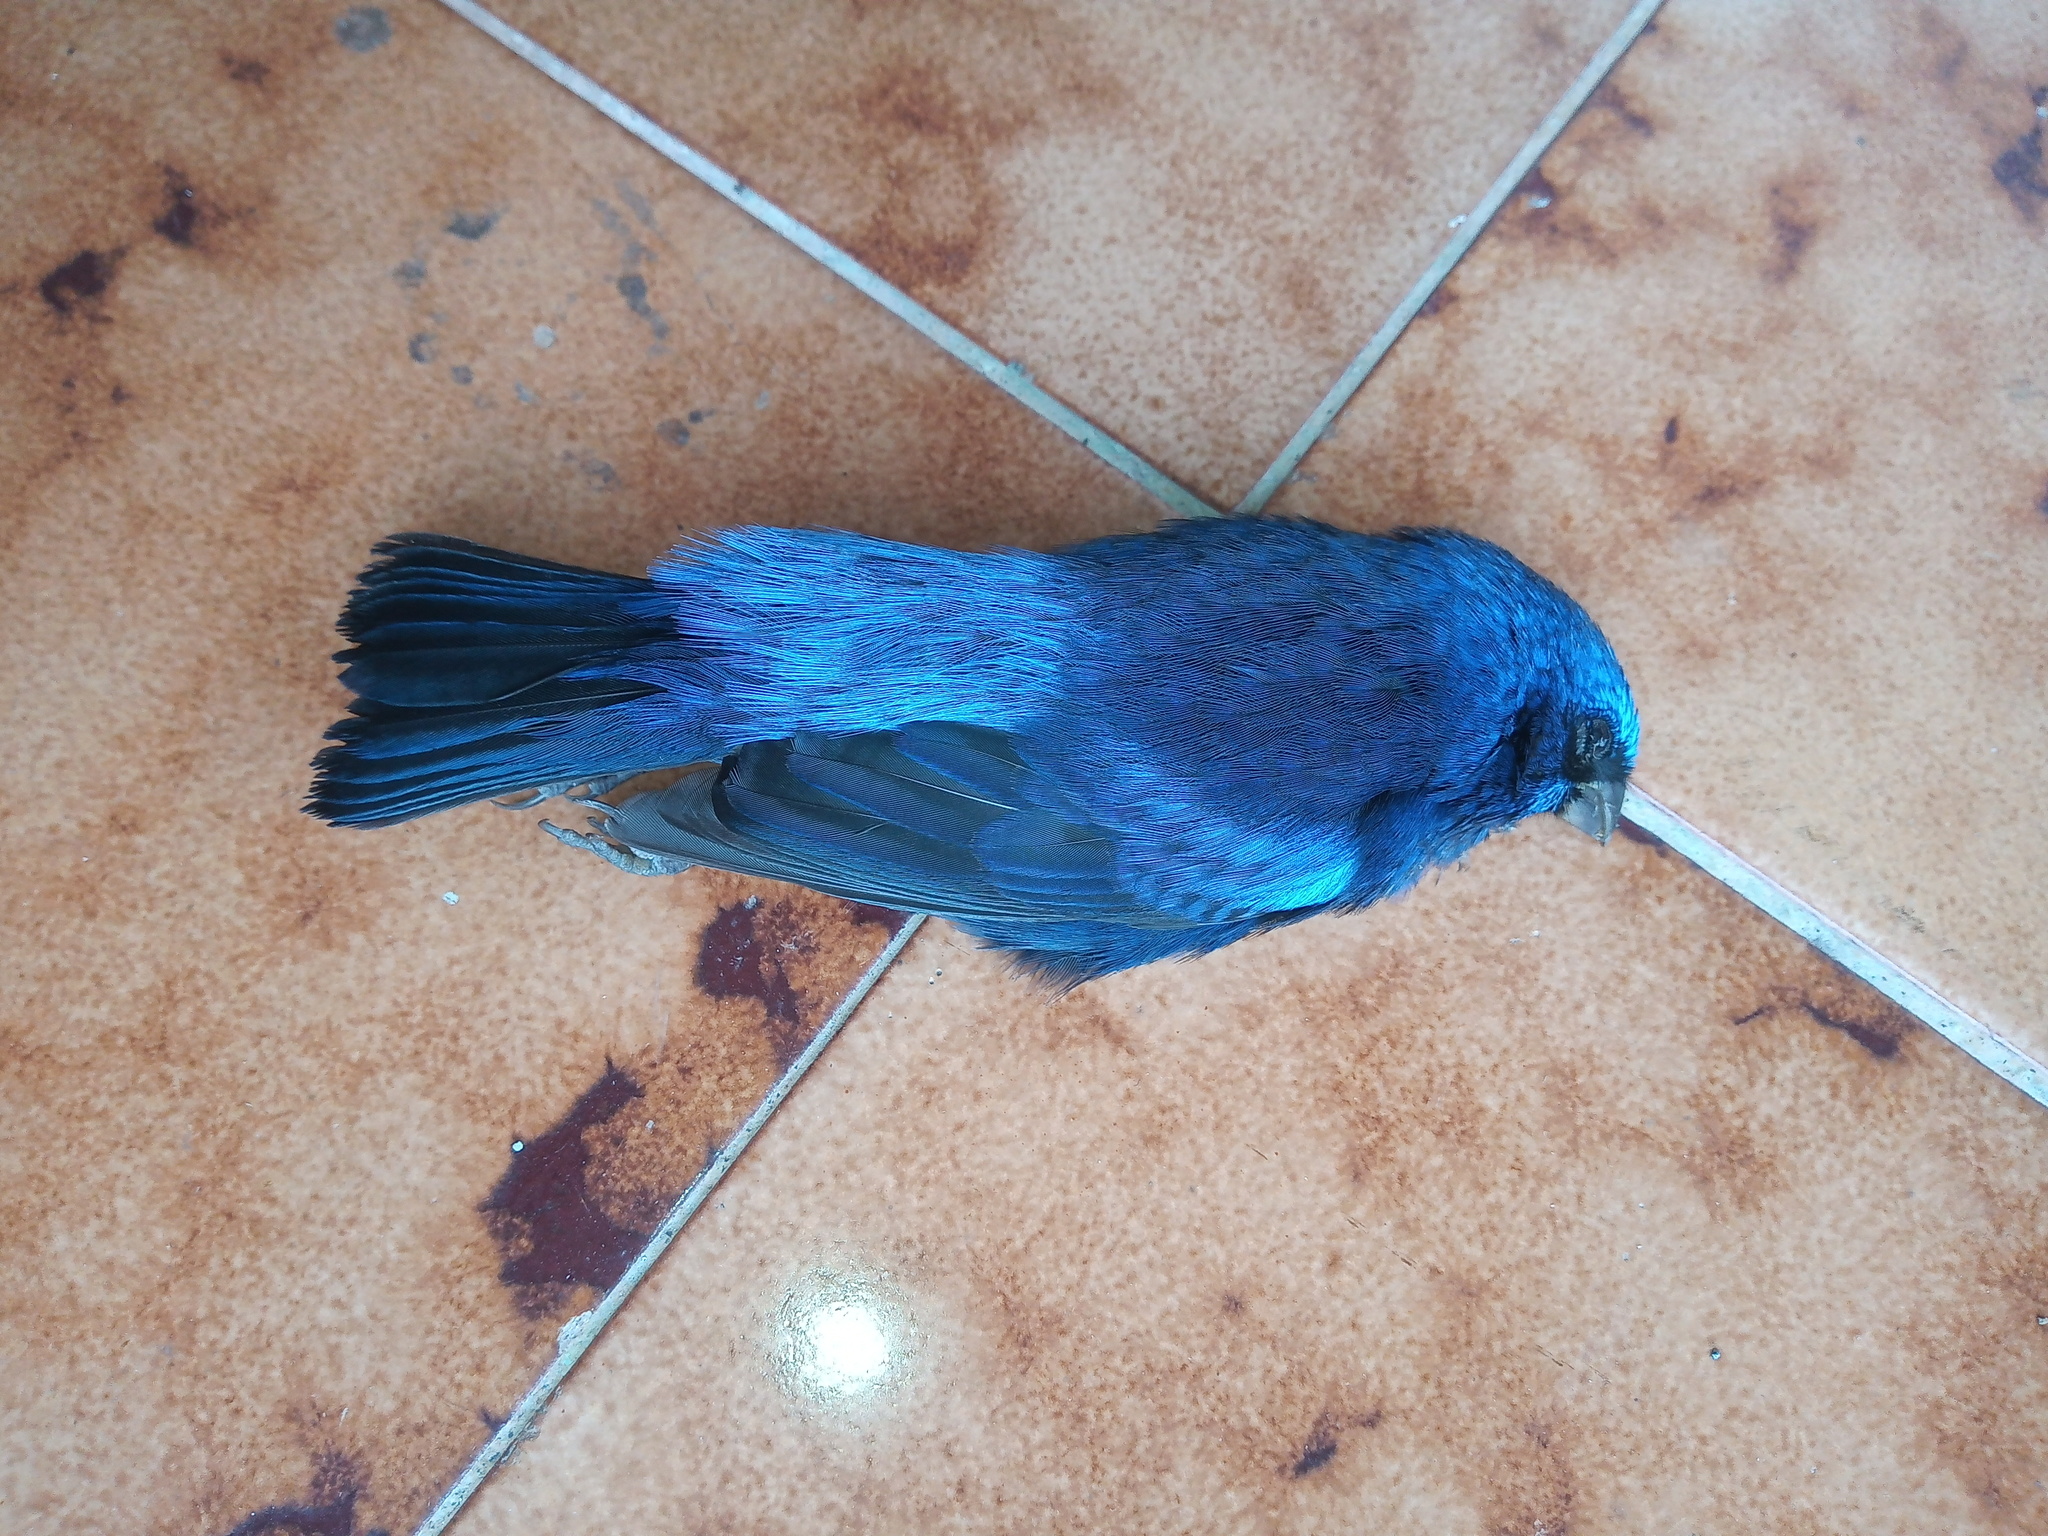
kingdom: Animalia
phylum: Chordata
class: Aves
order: Passeriformes
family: Cardinalidae
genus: Cyanocompsa
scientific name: Cyanocompsa parellina
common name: Blue bunting
